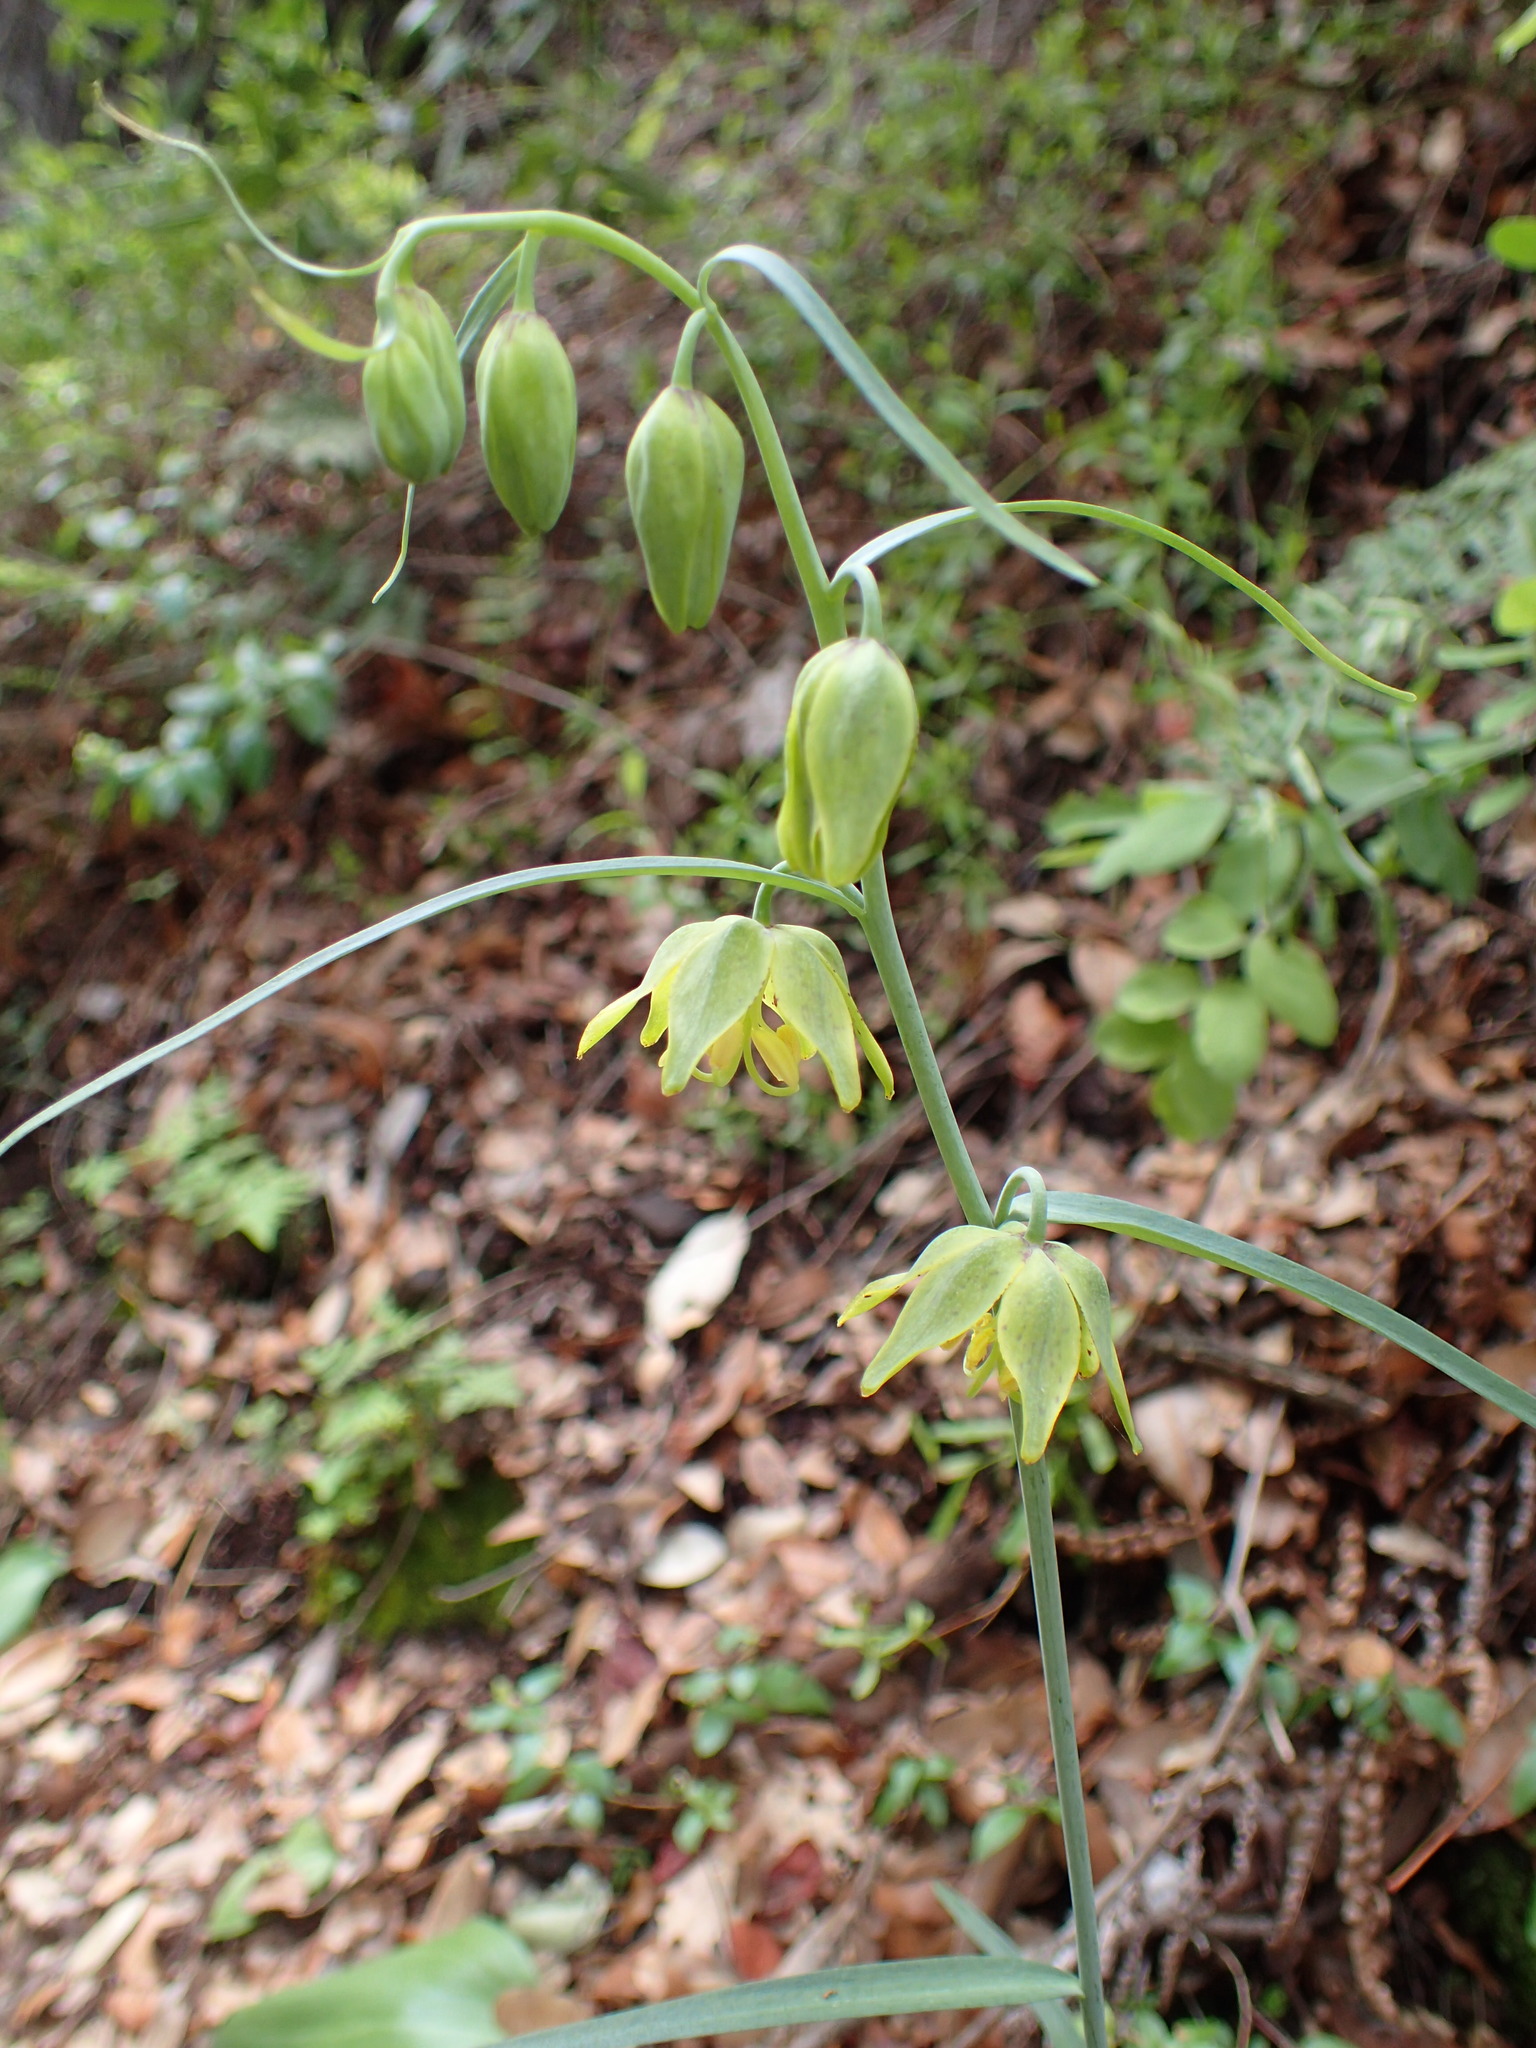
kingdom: Plantae
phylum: Tracheophyta
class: Liliopsida
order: Liliales
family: Liliaceae
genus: Fritillaria
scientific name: Fritillaria ojaiensis
